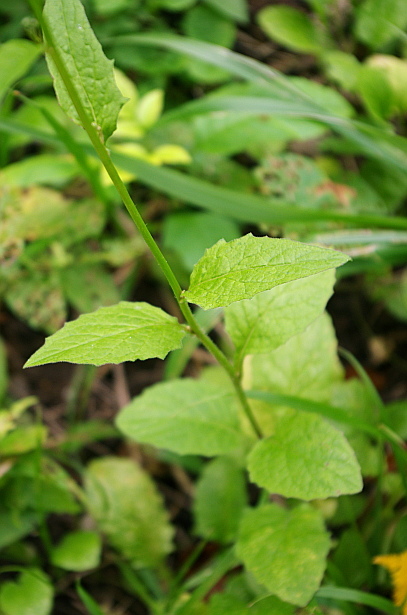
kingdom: Plantae
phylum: Tracheophyta
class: Magnoliopsida
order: Asterales
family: Asteraceae
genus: Lapsana
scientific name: Lapsana communis
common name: Nipplewort
